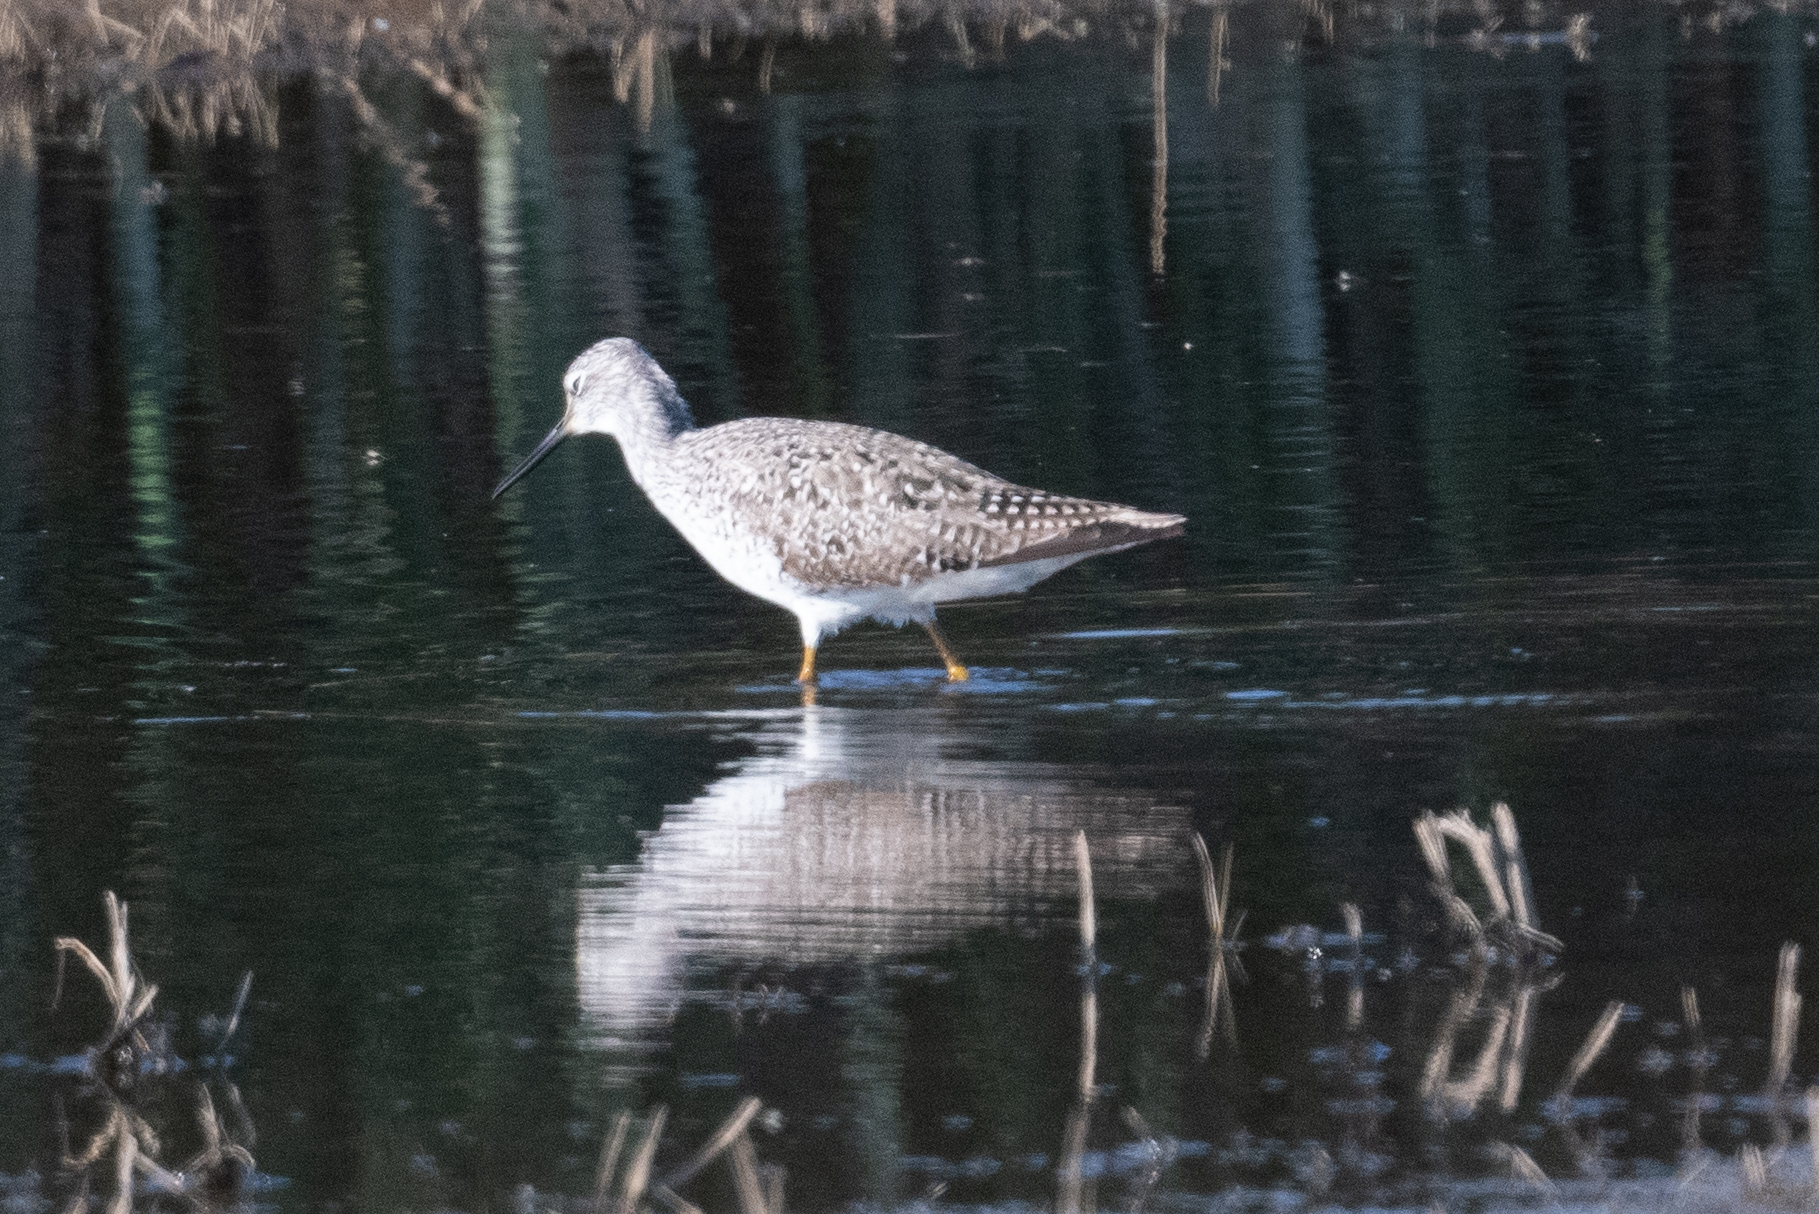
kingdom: Animalia
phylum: Chordata
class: Aves
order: Charadriiformes
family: Scolopacidae
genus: Tringa
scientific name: Tringa melanoleuca
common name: Greater yellowlegs
